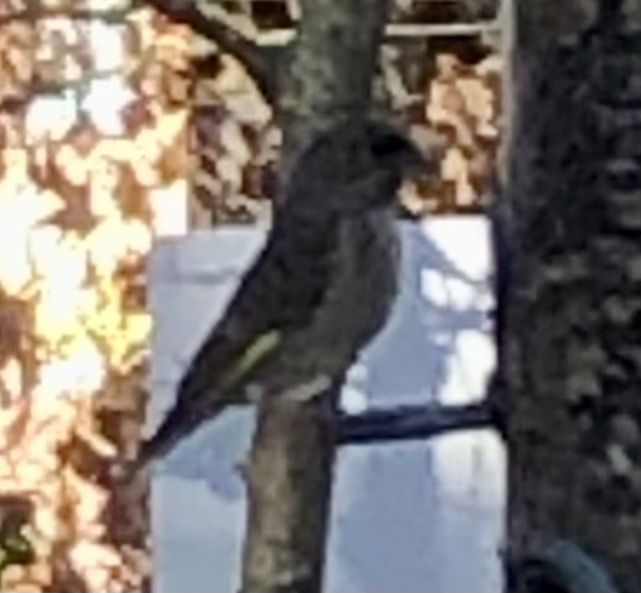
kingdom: Plantae
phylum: Tracheophyta
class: Liliopsida
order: Poales
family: Poaceae
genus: Chloris
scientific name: Chloris chloris
